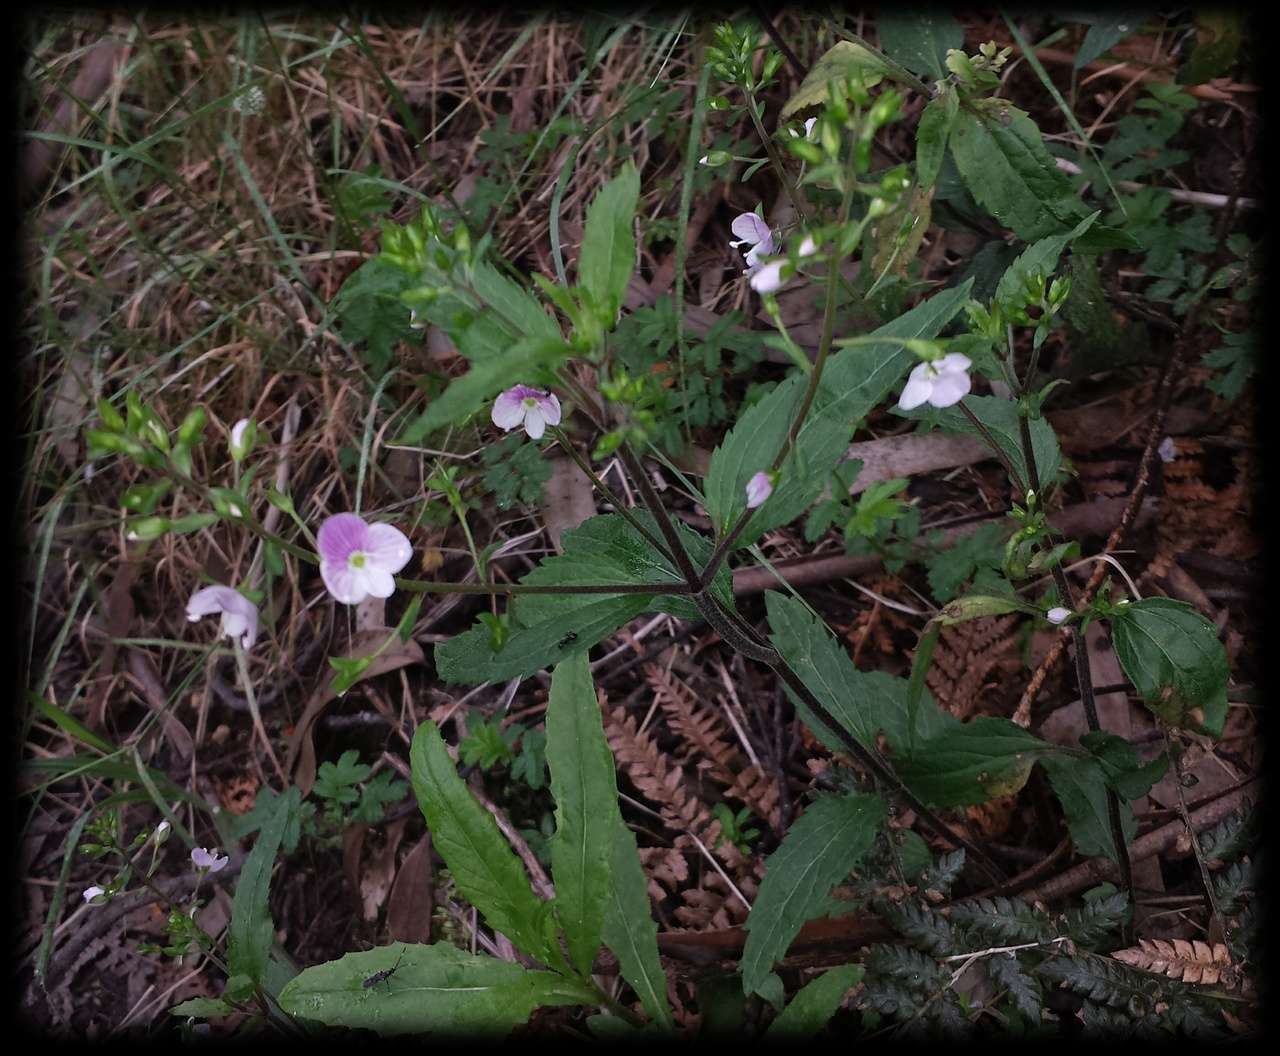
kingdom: Plantae
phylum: Tracheophyta
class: Magnoliopsida
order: Lamiales
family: Plantaginaceae
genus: Veronica
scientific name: Veronica notabilis
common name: Forest speedwell
